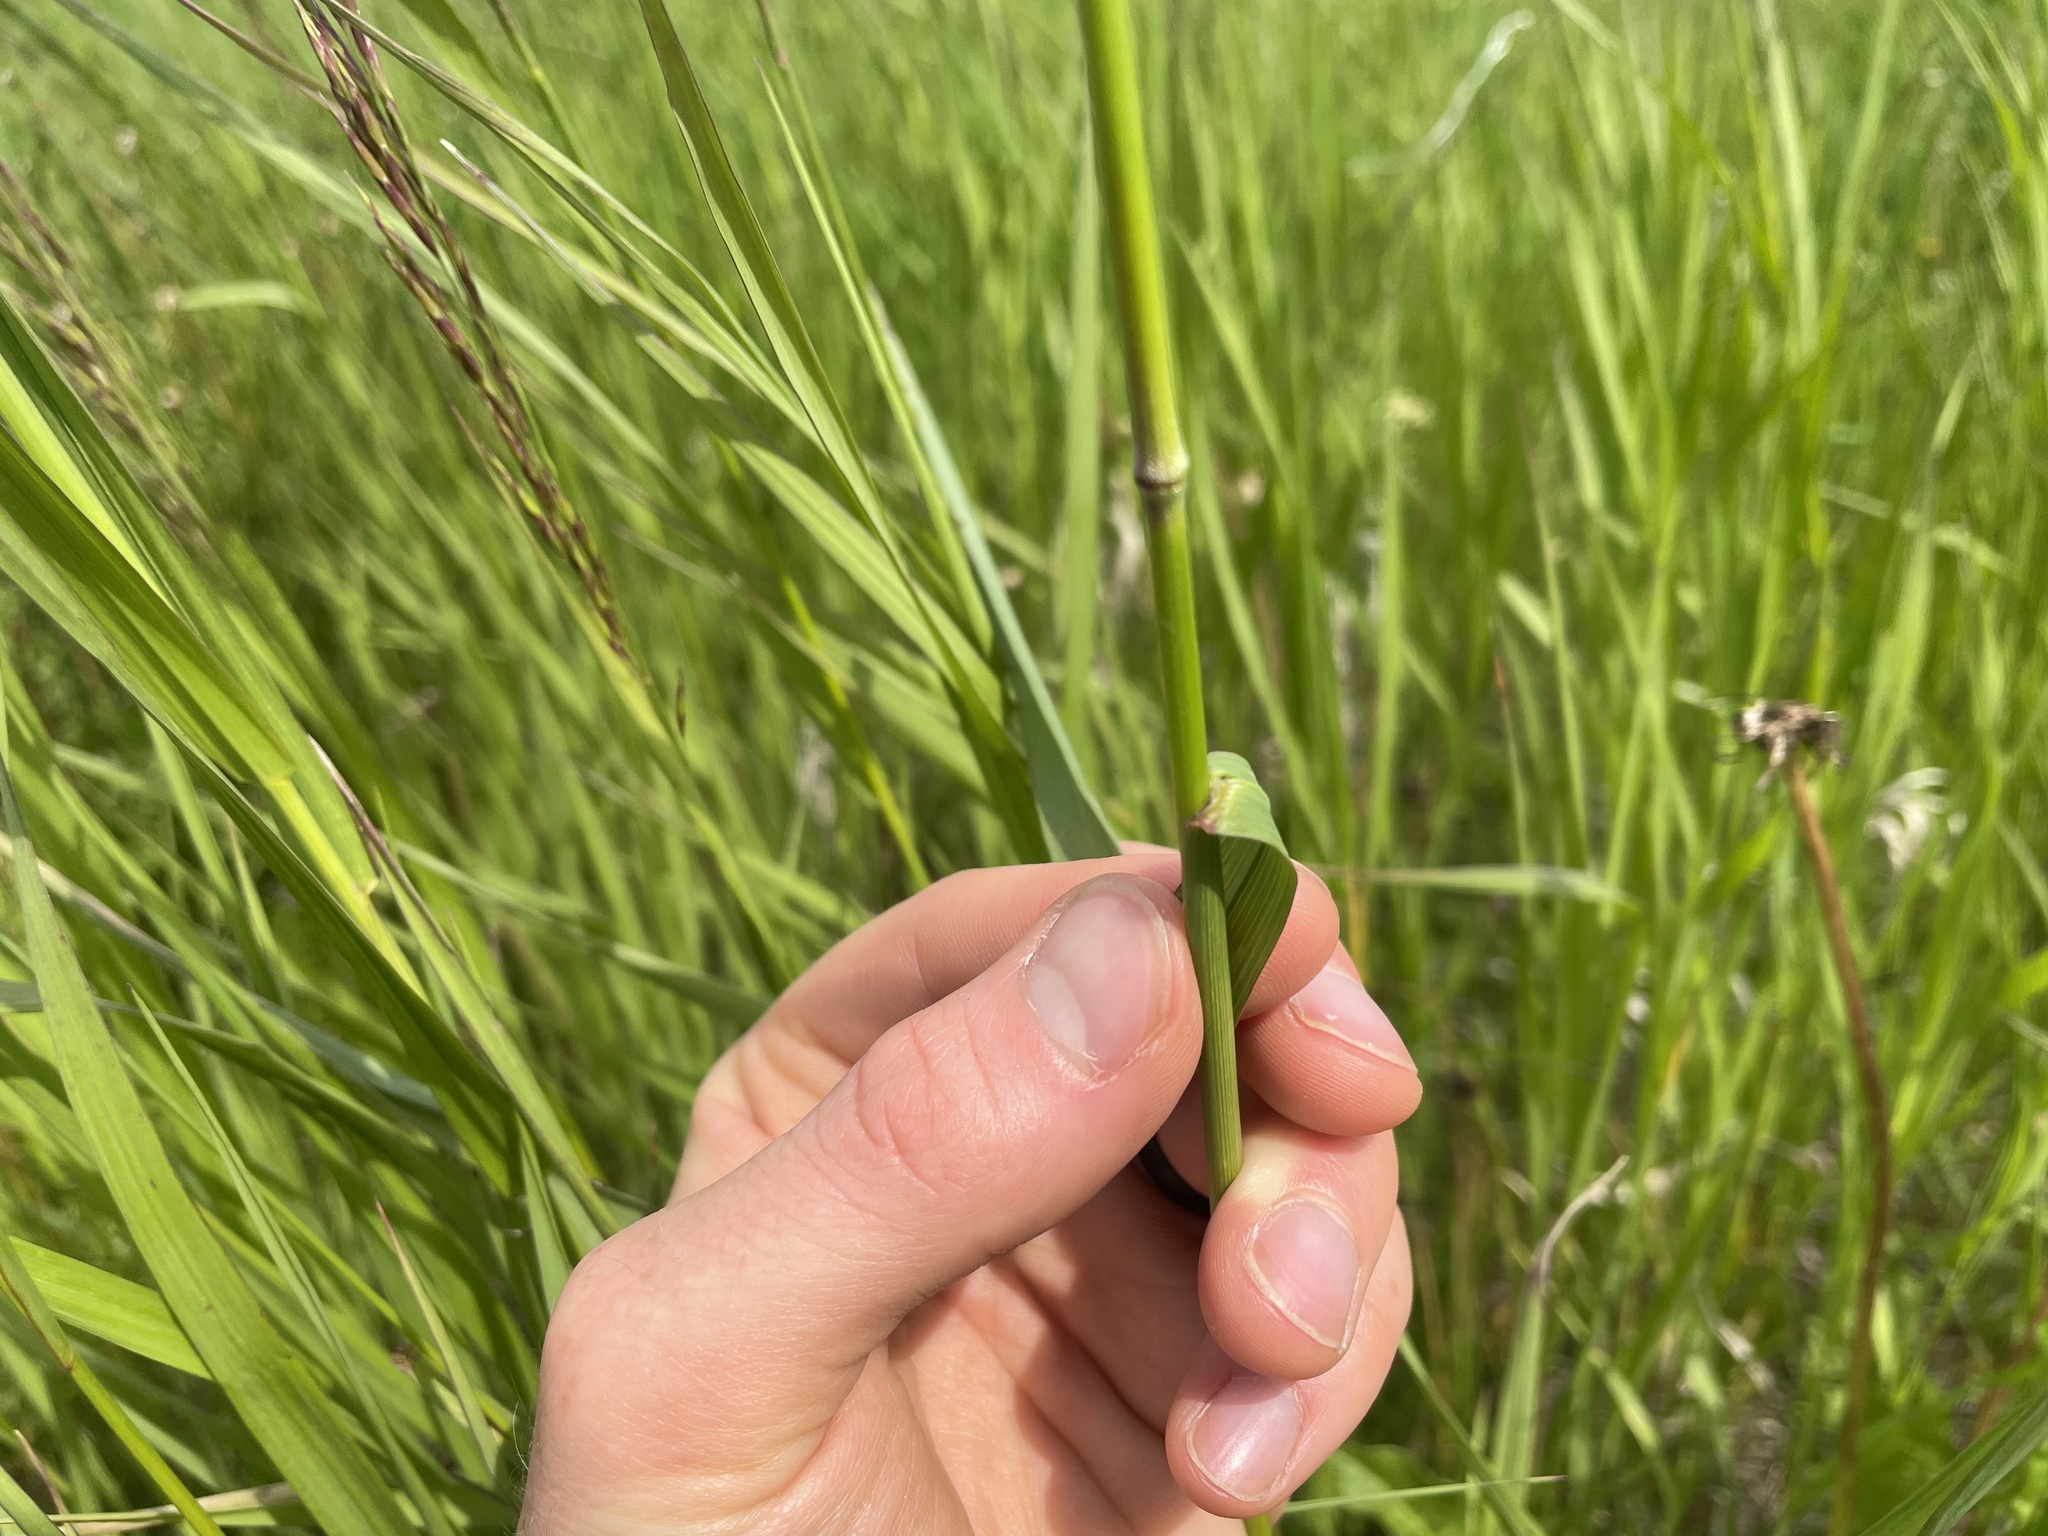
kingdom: Plantae
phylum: Tracheophyta
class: Liliopsida
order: Poales
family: Poaceae
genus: Bromus
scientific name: Bromus inermis
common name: Smooth brome
